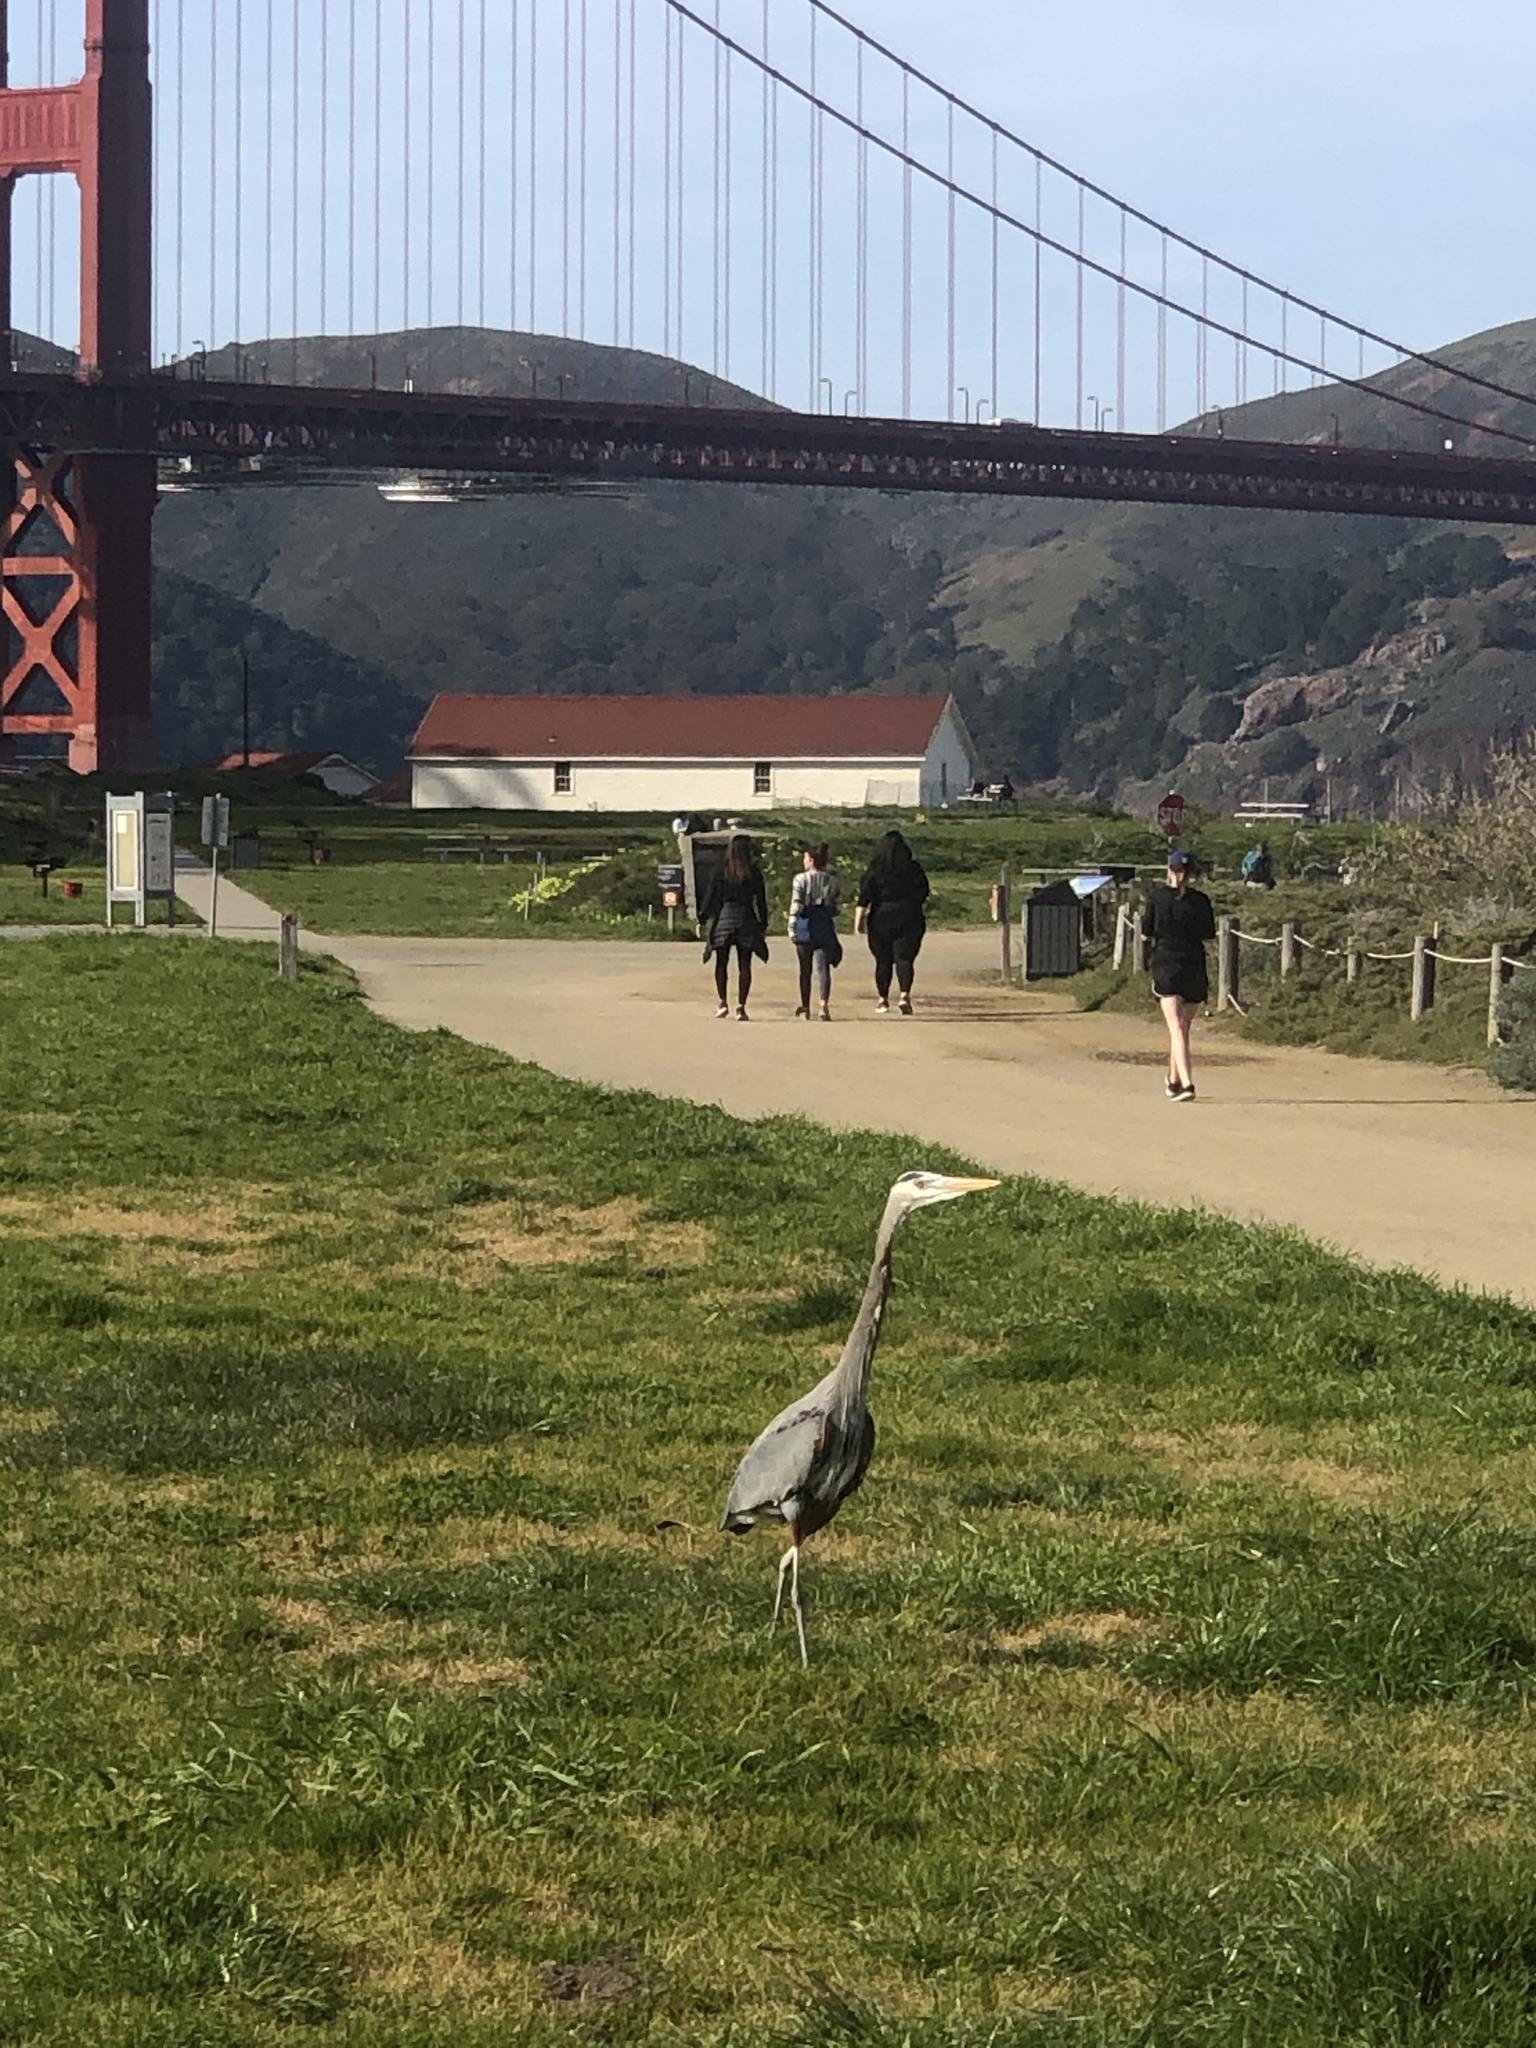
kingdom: Animalia
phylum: Chordata
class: Aves
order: Pelecaniformes
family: Ardeidae
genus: Ardea
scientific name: Ardea herodias
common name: Great blue heron
